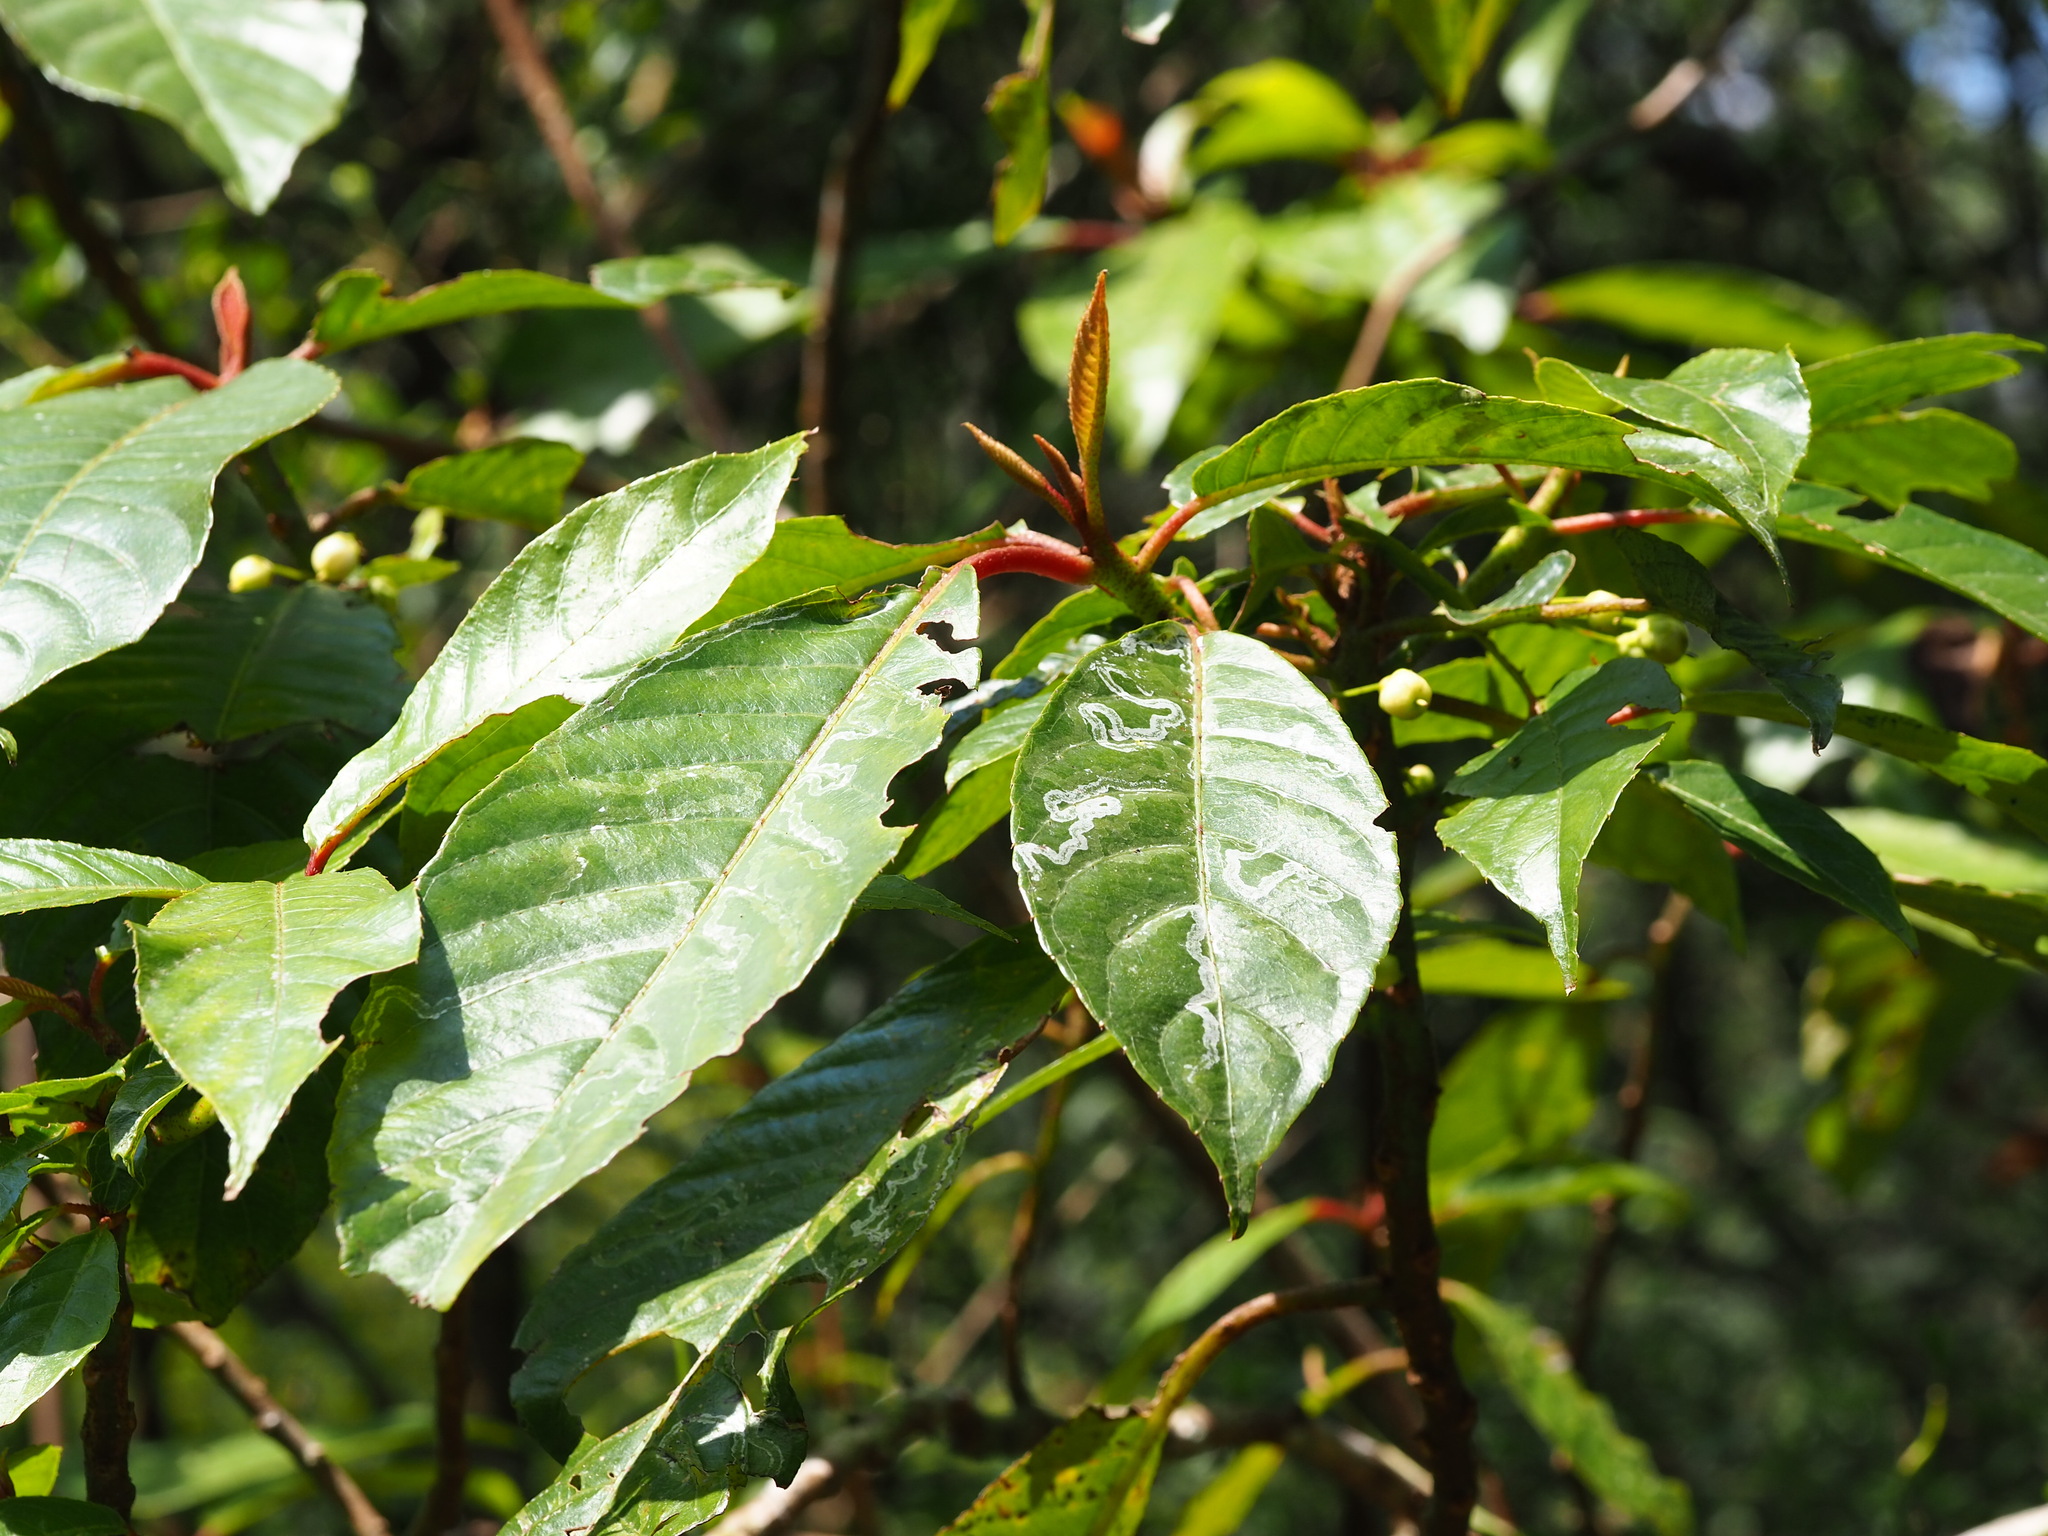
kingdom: Plantae
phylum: Tracheophyta
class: Magnoliopsida
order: Ericales
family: Actinidiaceae
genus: Saurauia
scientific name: Saurauia tristyla
